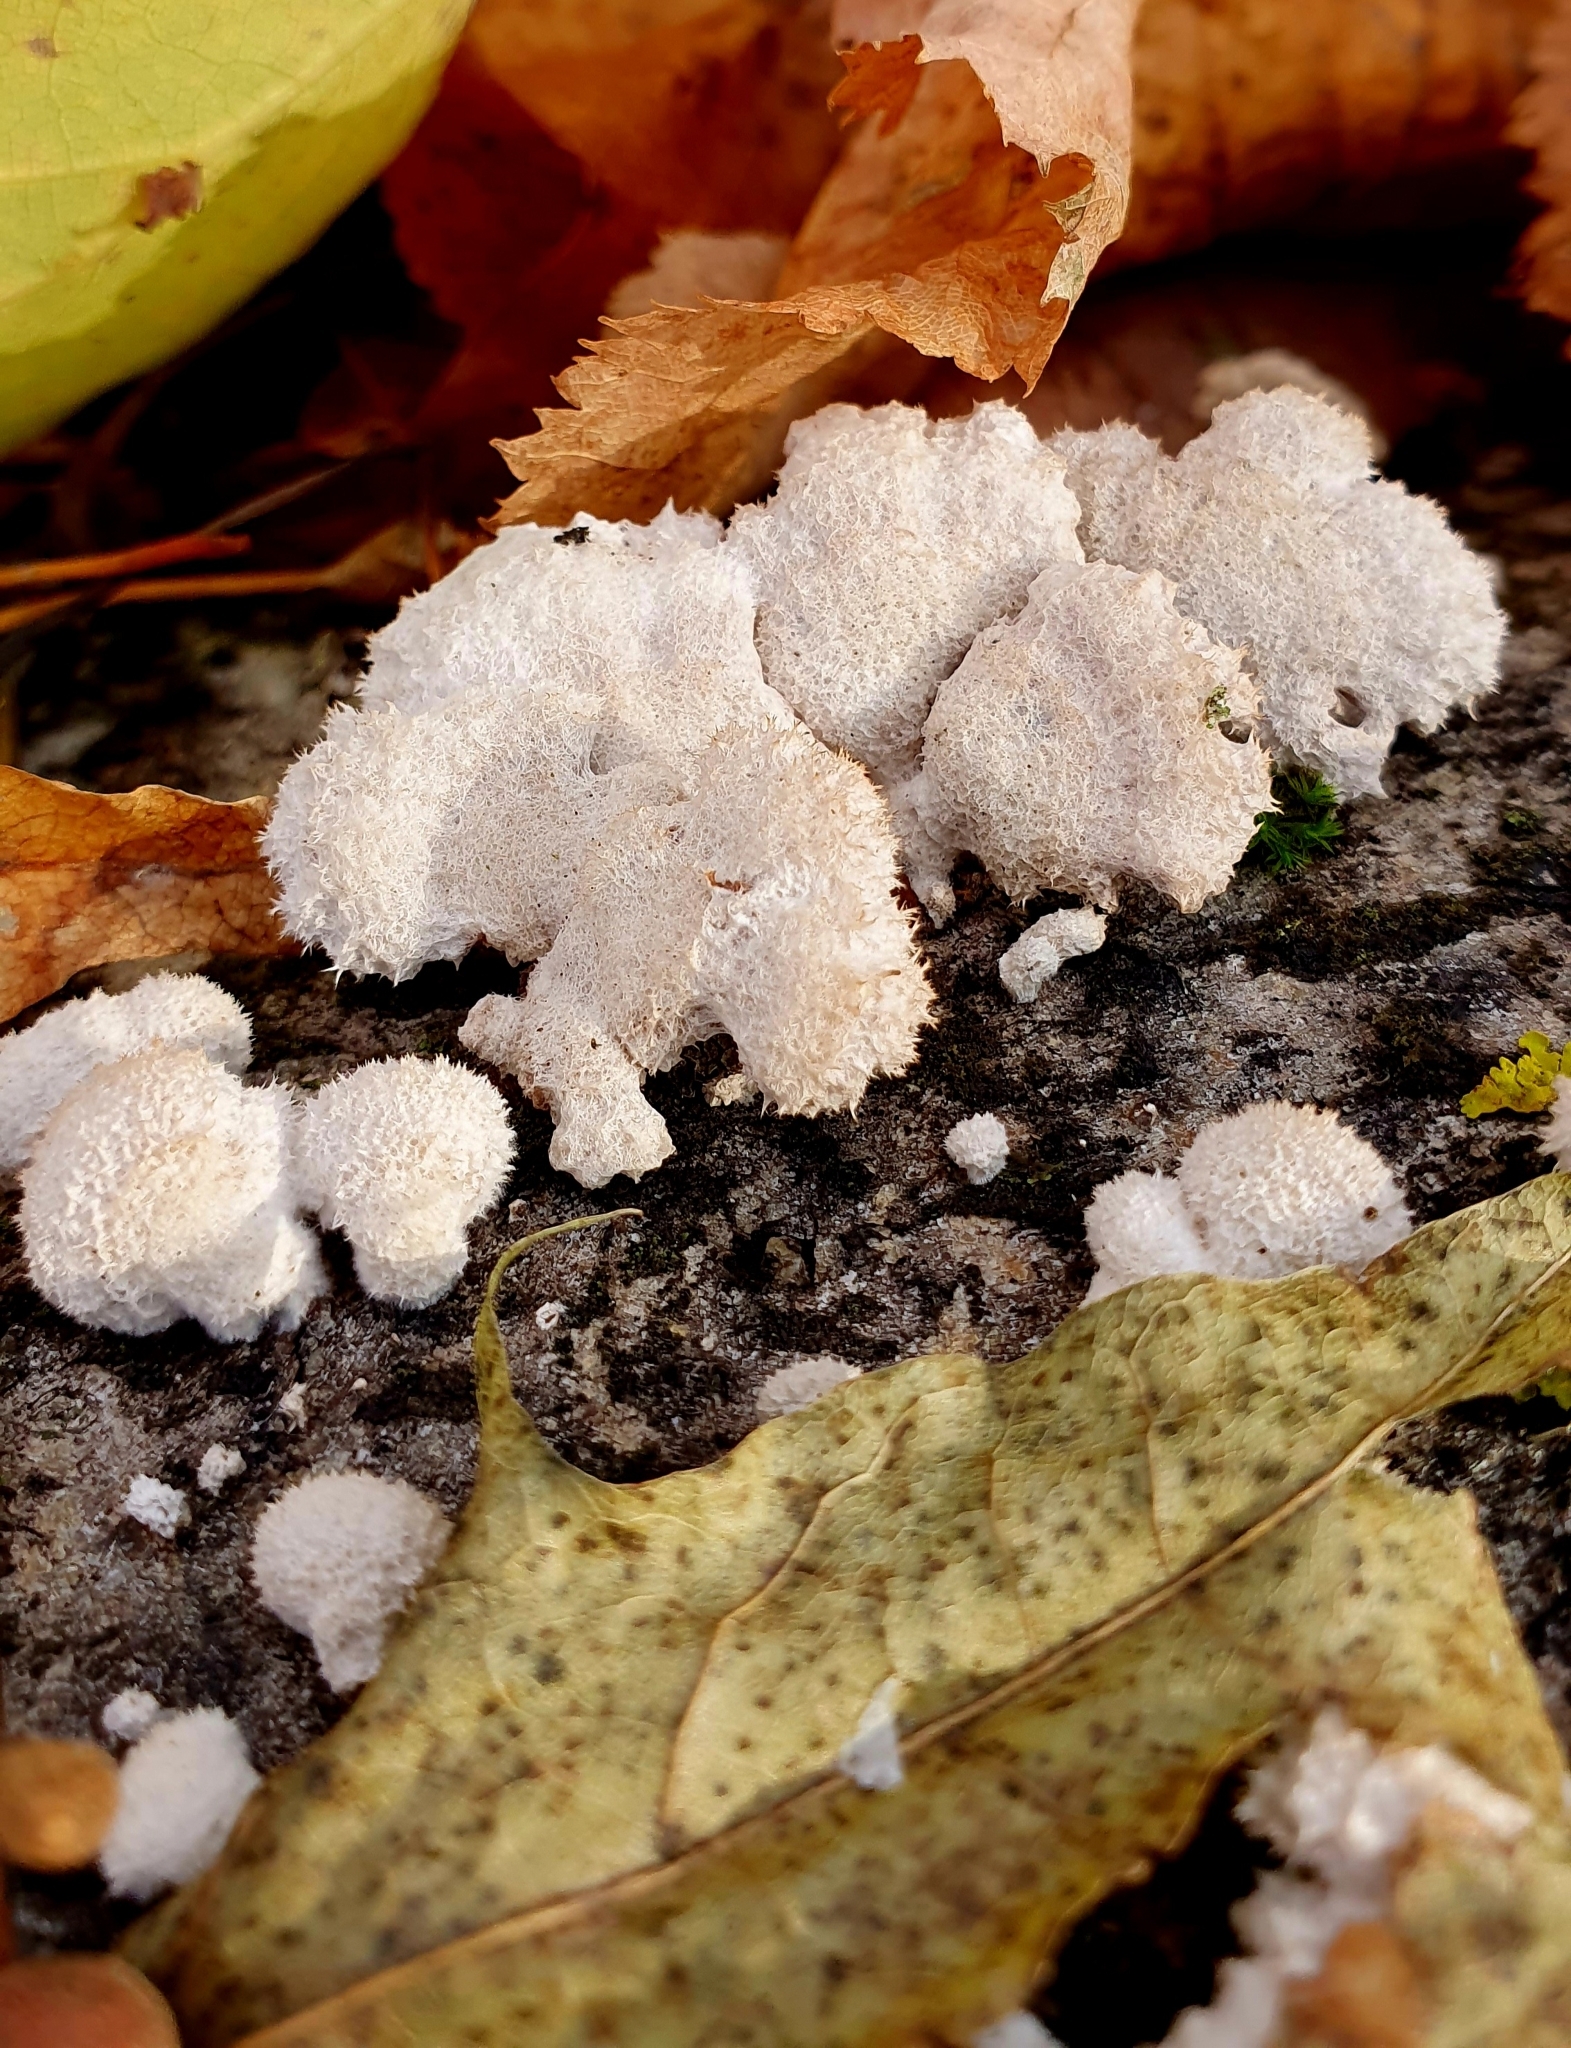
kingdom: Fungi
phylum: Basidiomycota
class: Agaricomycetes
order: Agaricales
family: Schizophyllaceae
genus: Schizophyllum
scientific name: Schizophyllum commune
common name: Common porecrust
